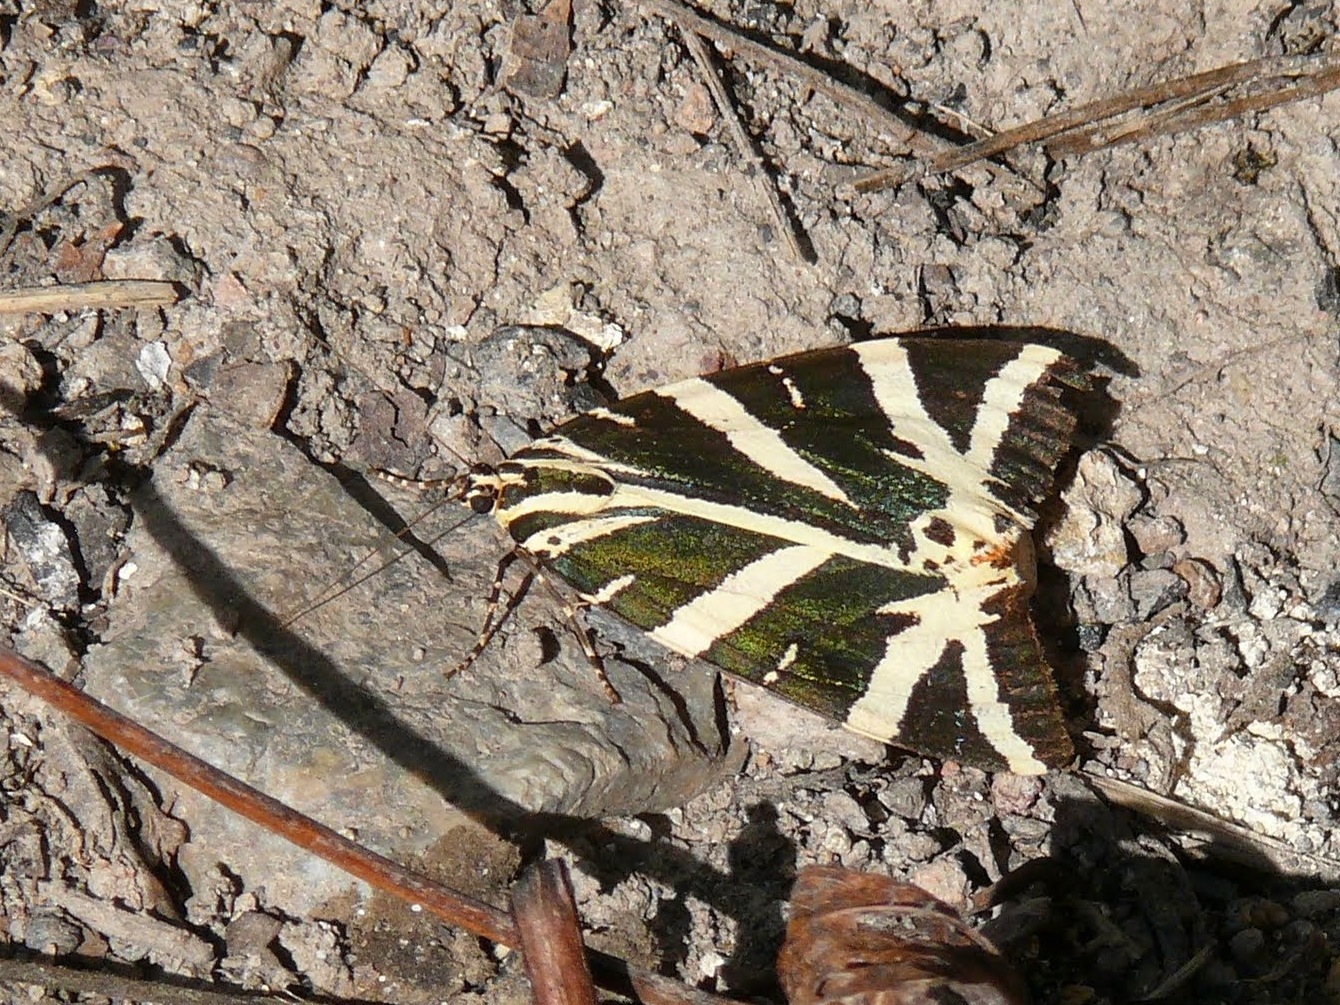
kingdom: Animalia
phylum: Arthropoda
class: Insecta
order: Lepidoptera
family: Erebidae
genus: Euplagia
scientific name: Euplagia quadripunctaria
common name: Jersey tiger
